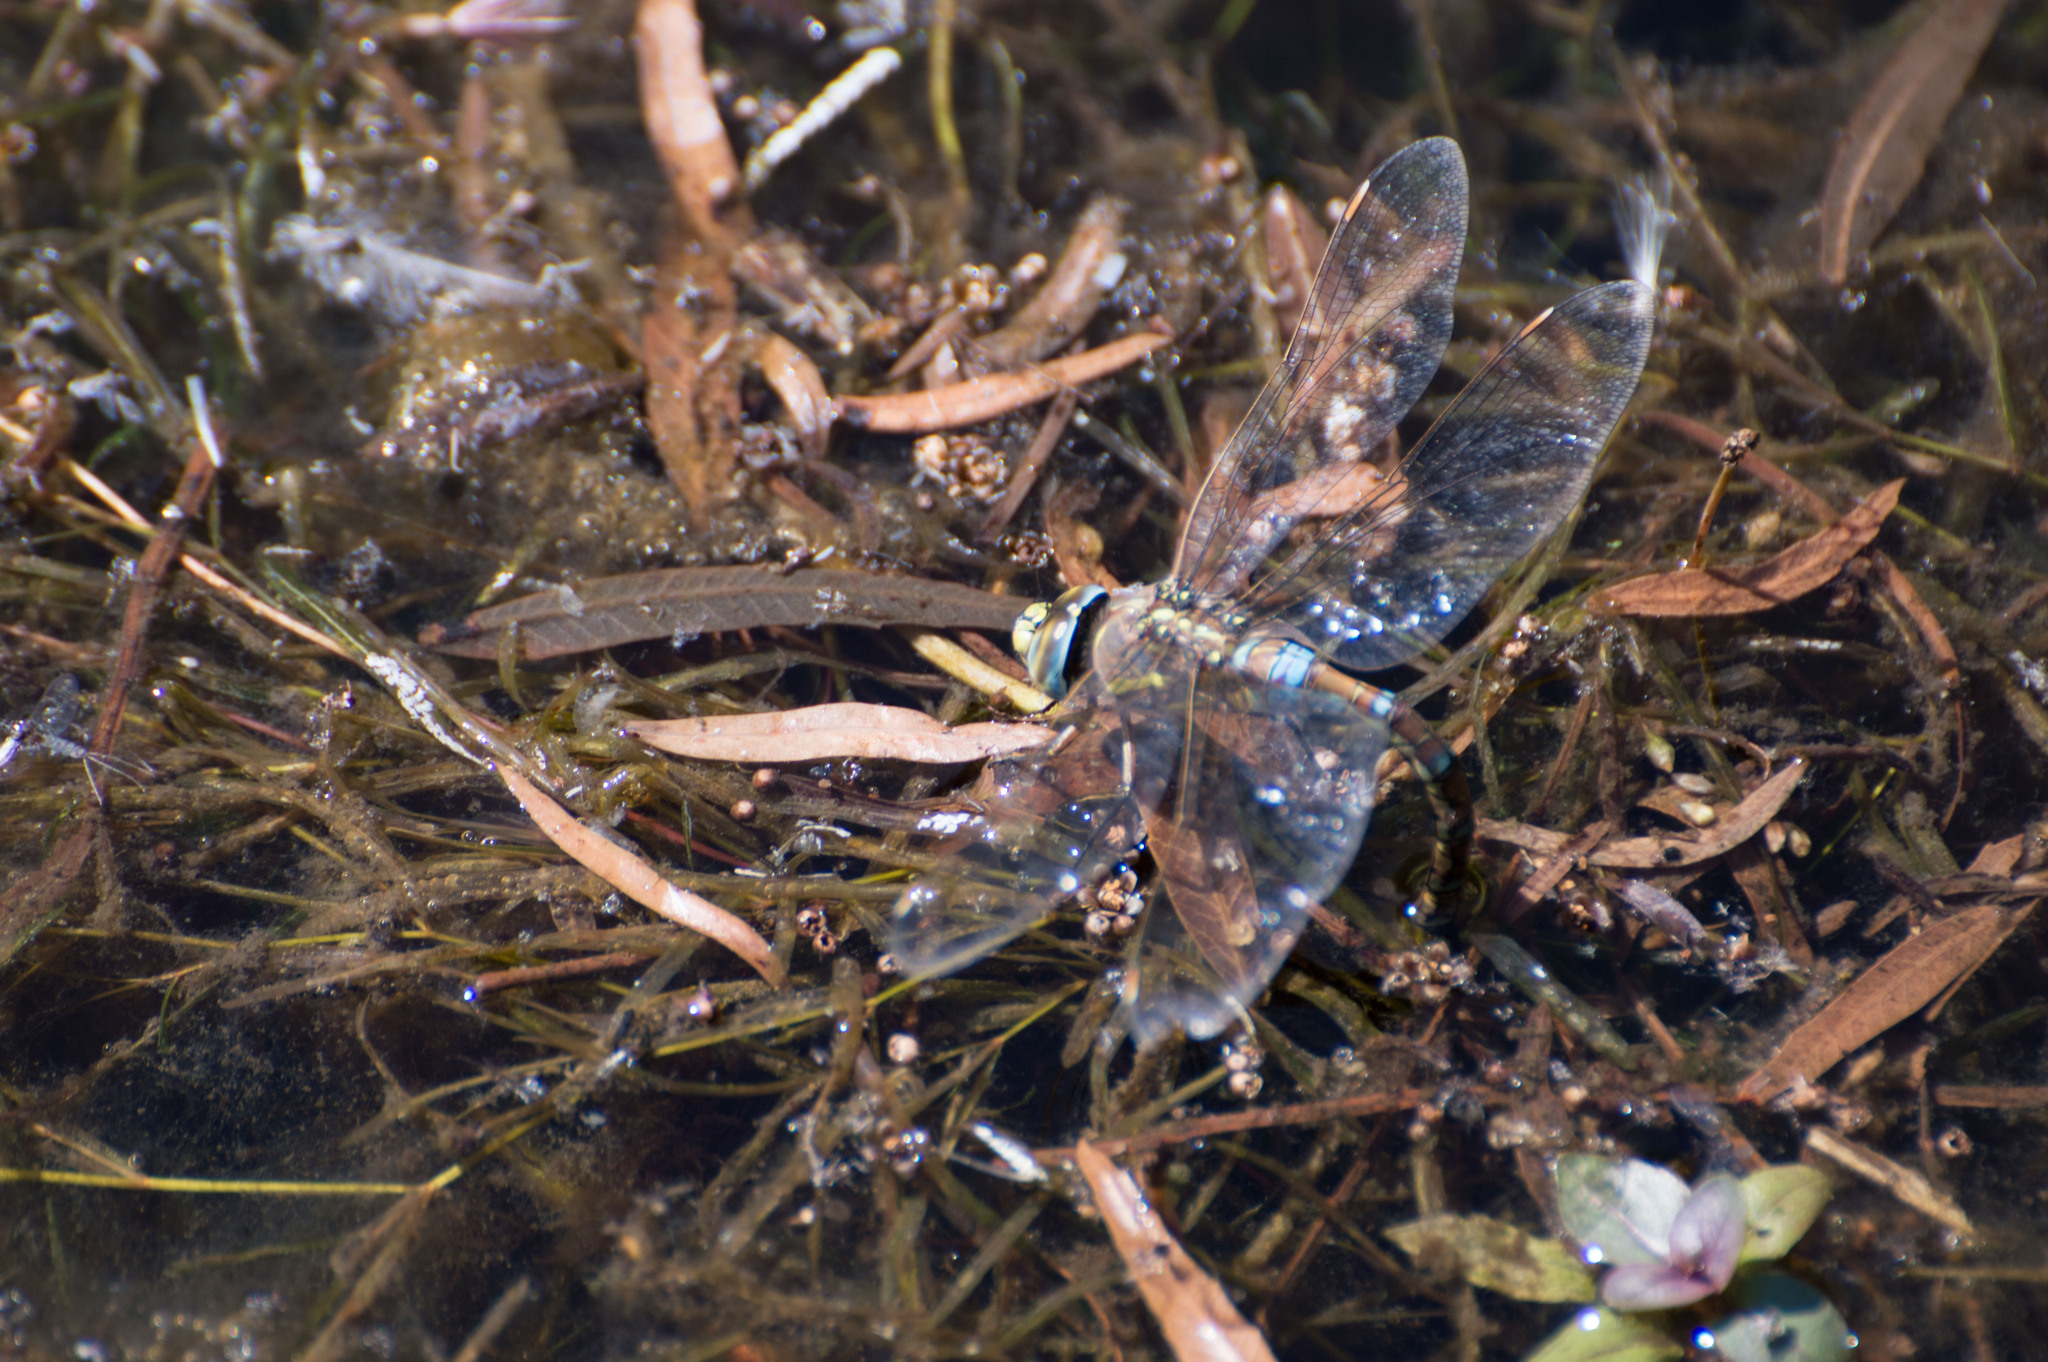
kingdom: Animalia
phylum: Arthropoda
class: Insecta
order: Odonata
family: Aeshnidae
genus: Rhionaeschna
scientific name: Rhionaeschna absoluta
